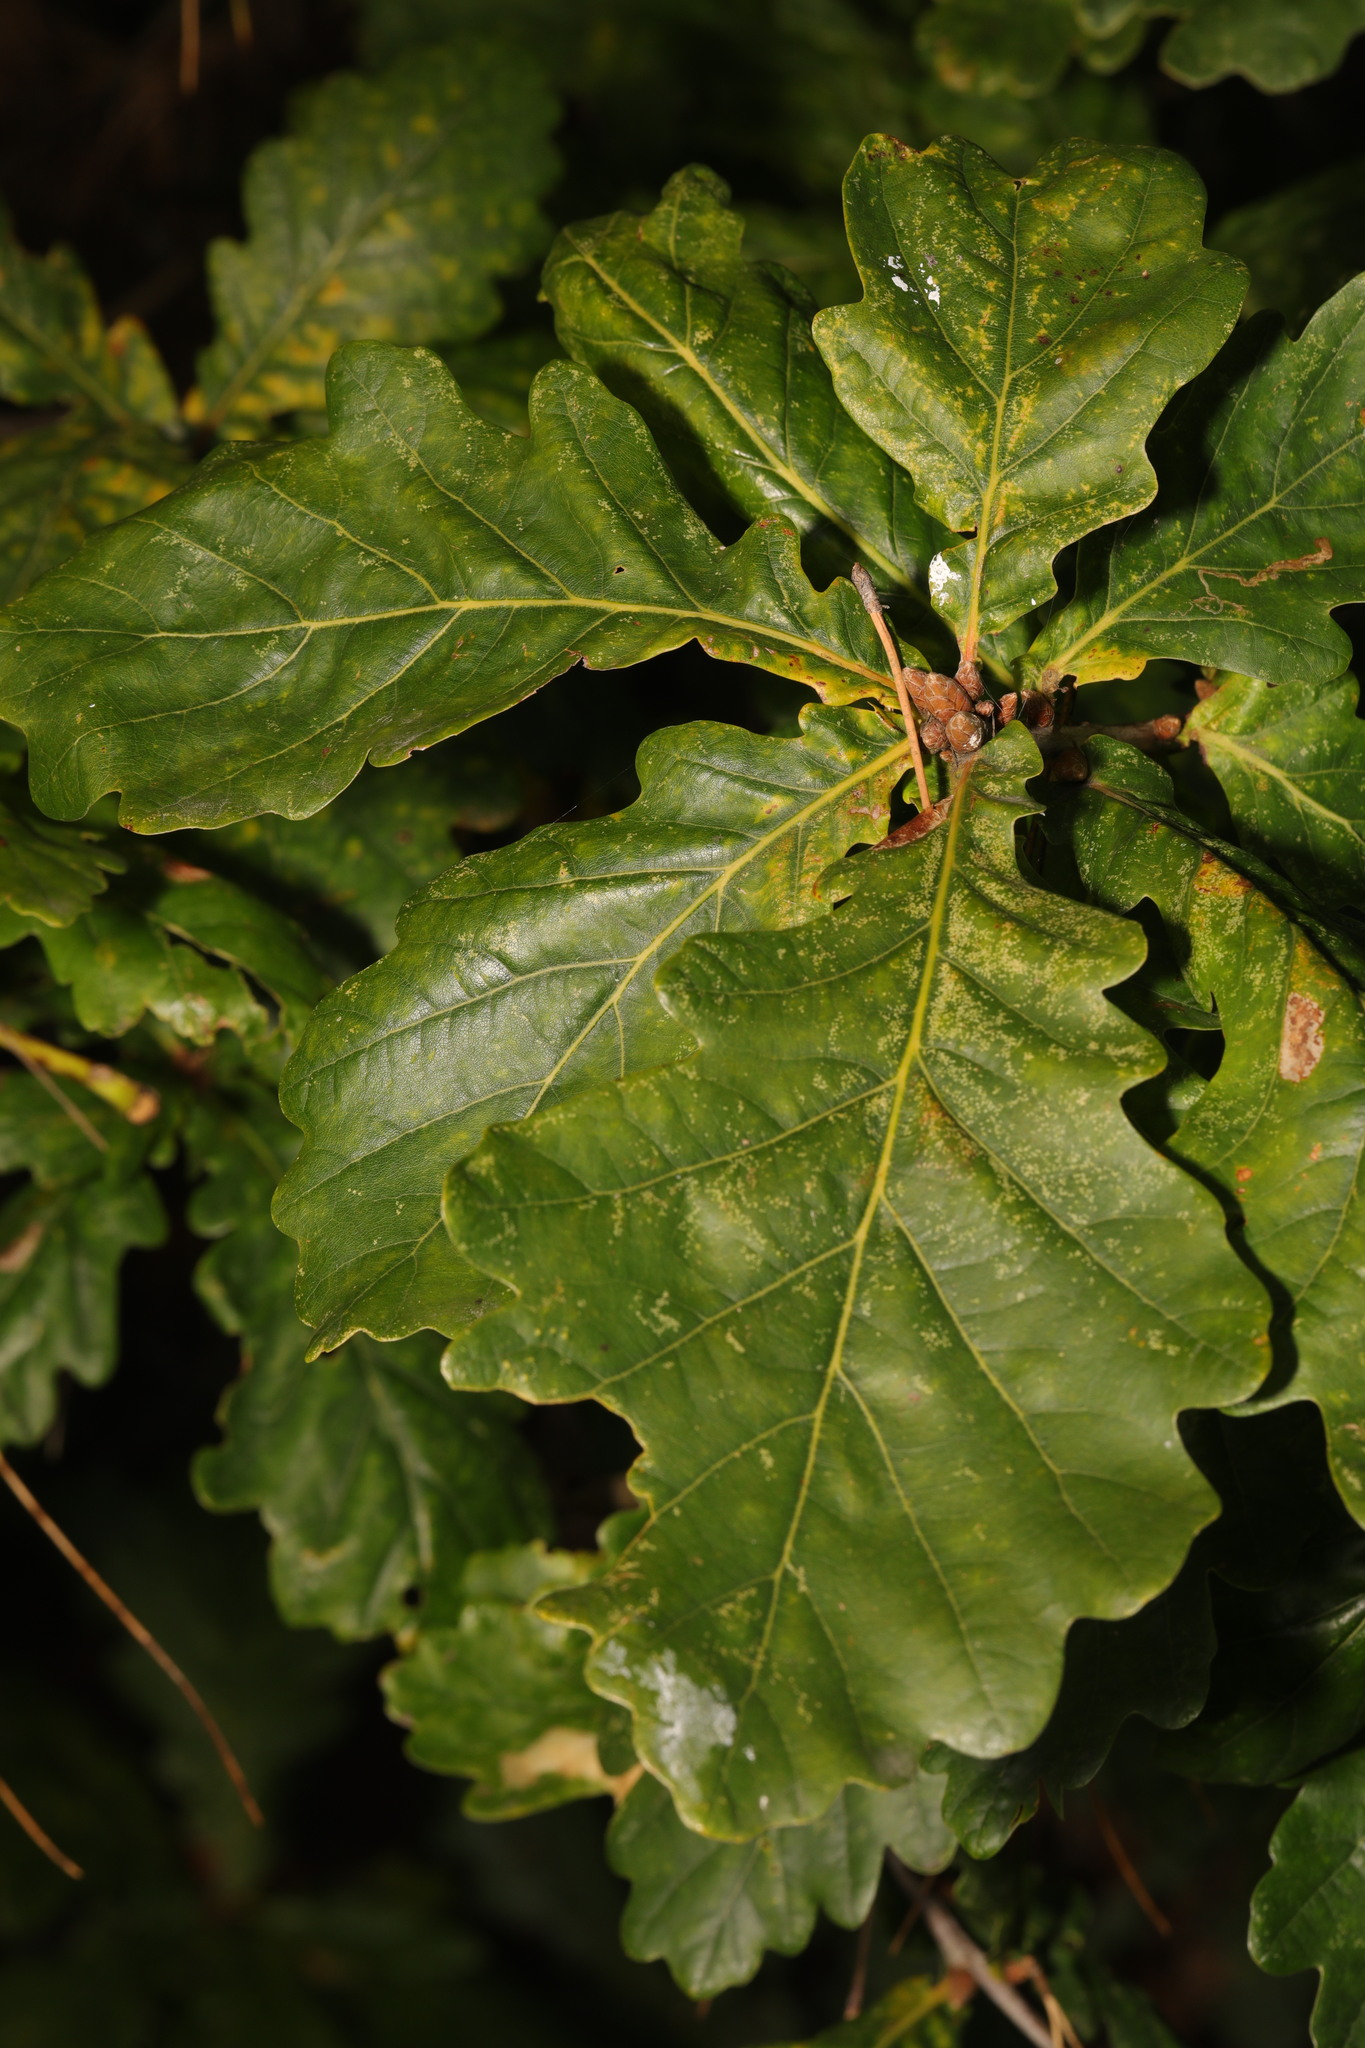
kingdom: Plantae
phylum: Tracheophyta
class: Magnoliopsida
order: Fagales
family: Fagaceae
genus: Quercus
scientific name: Quercus robur
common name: Pedunculate oak
